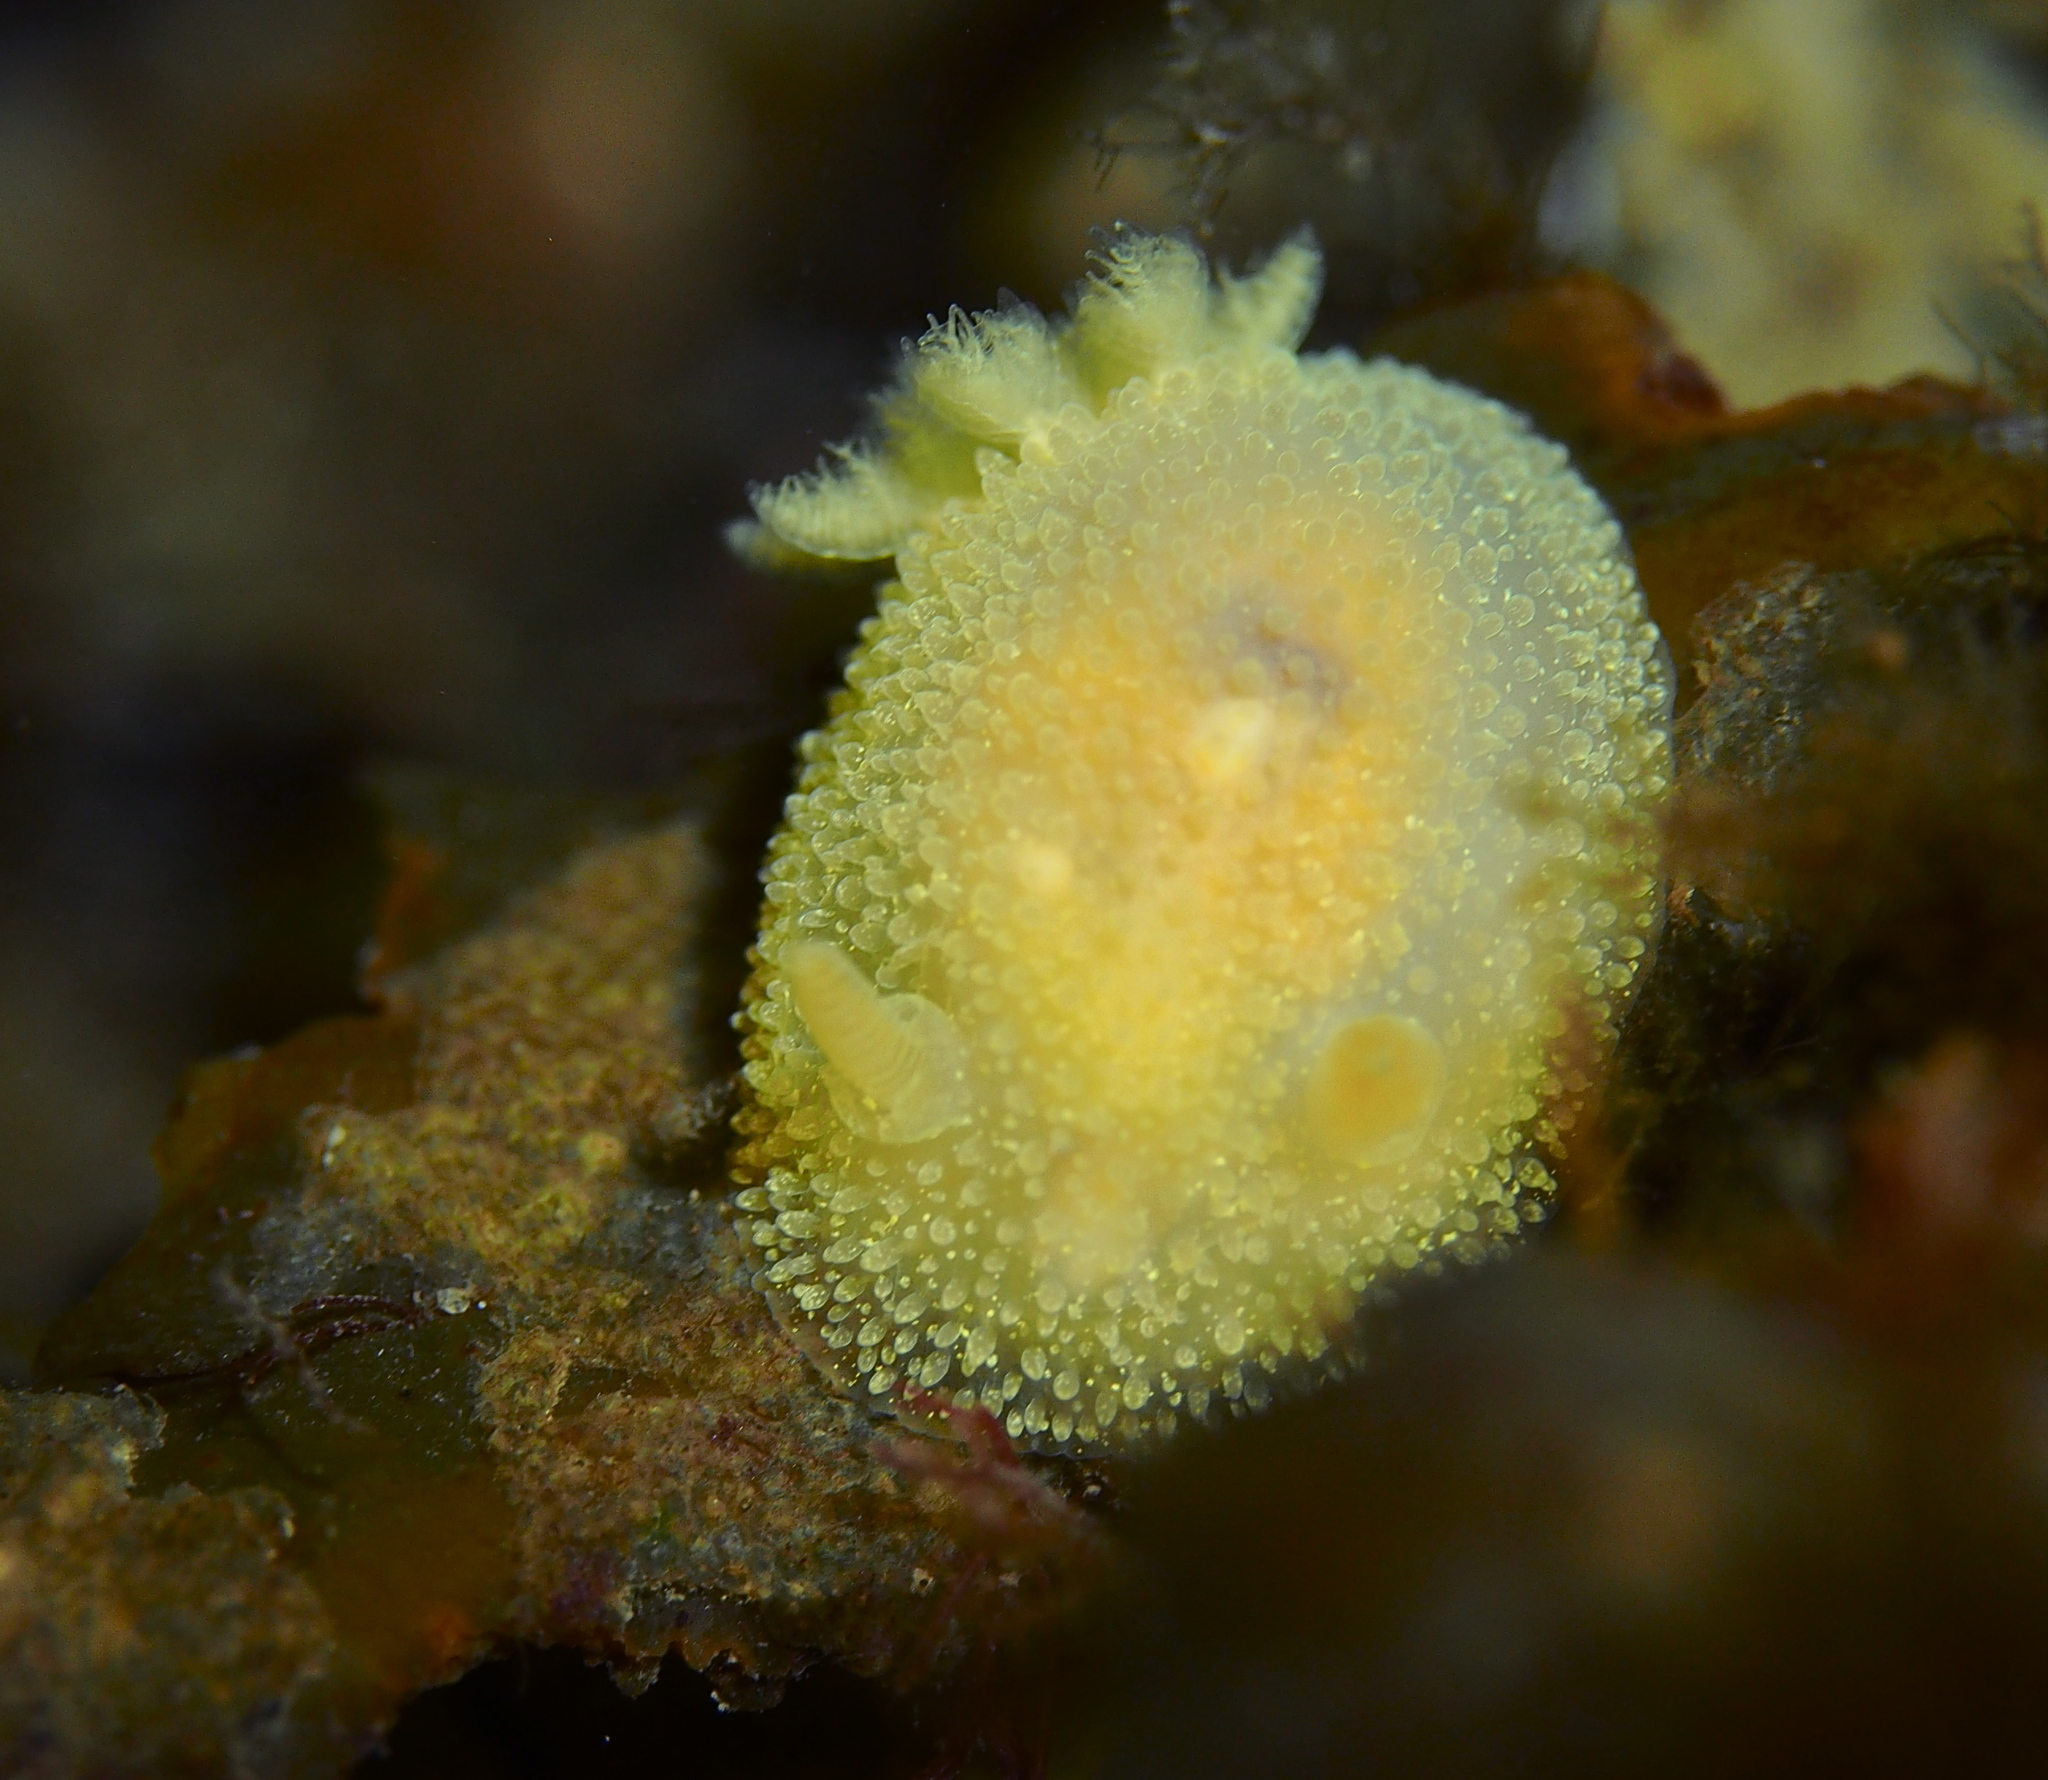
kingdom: Animalia
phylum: Mollusca
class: Gastropoda
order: Nudibranchia
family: Onchidorididae
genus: Acanthodoris
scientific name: Acanthodoris pilosa
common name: Hairy spiny doris
